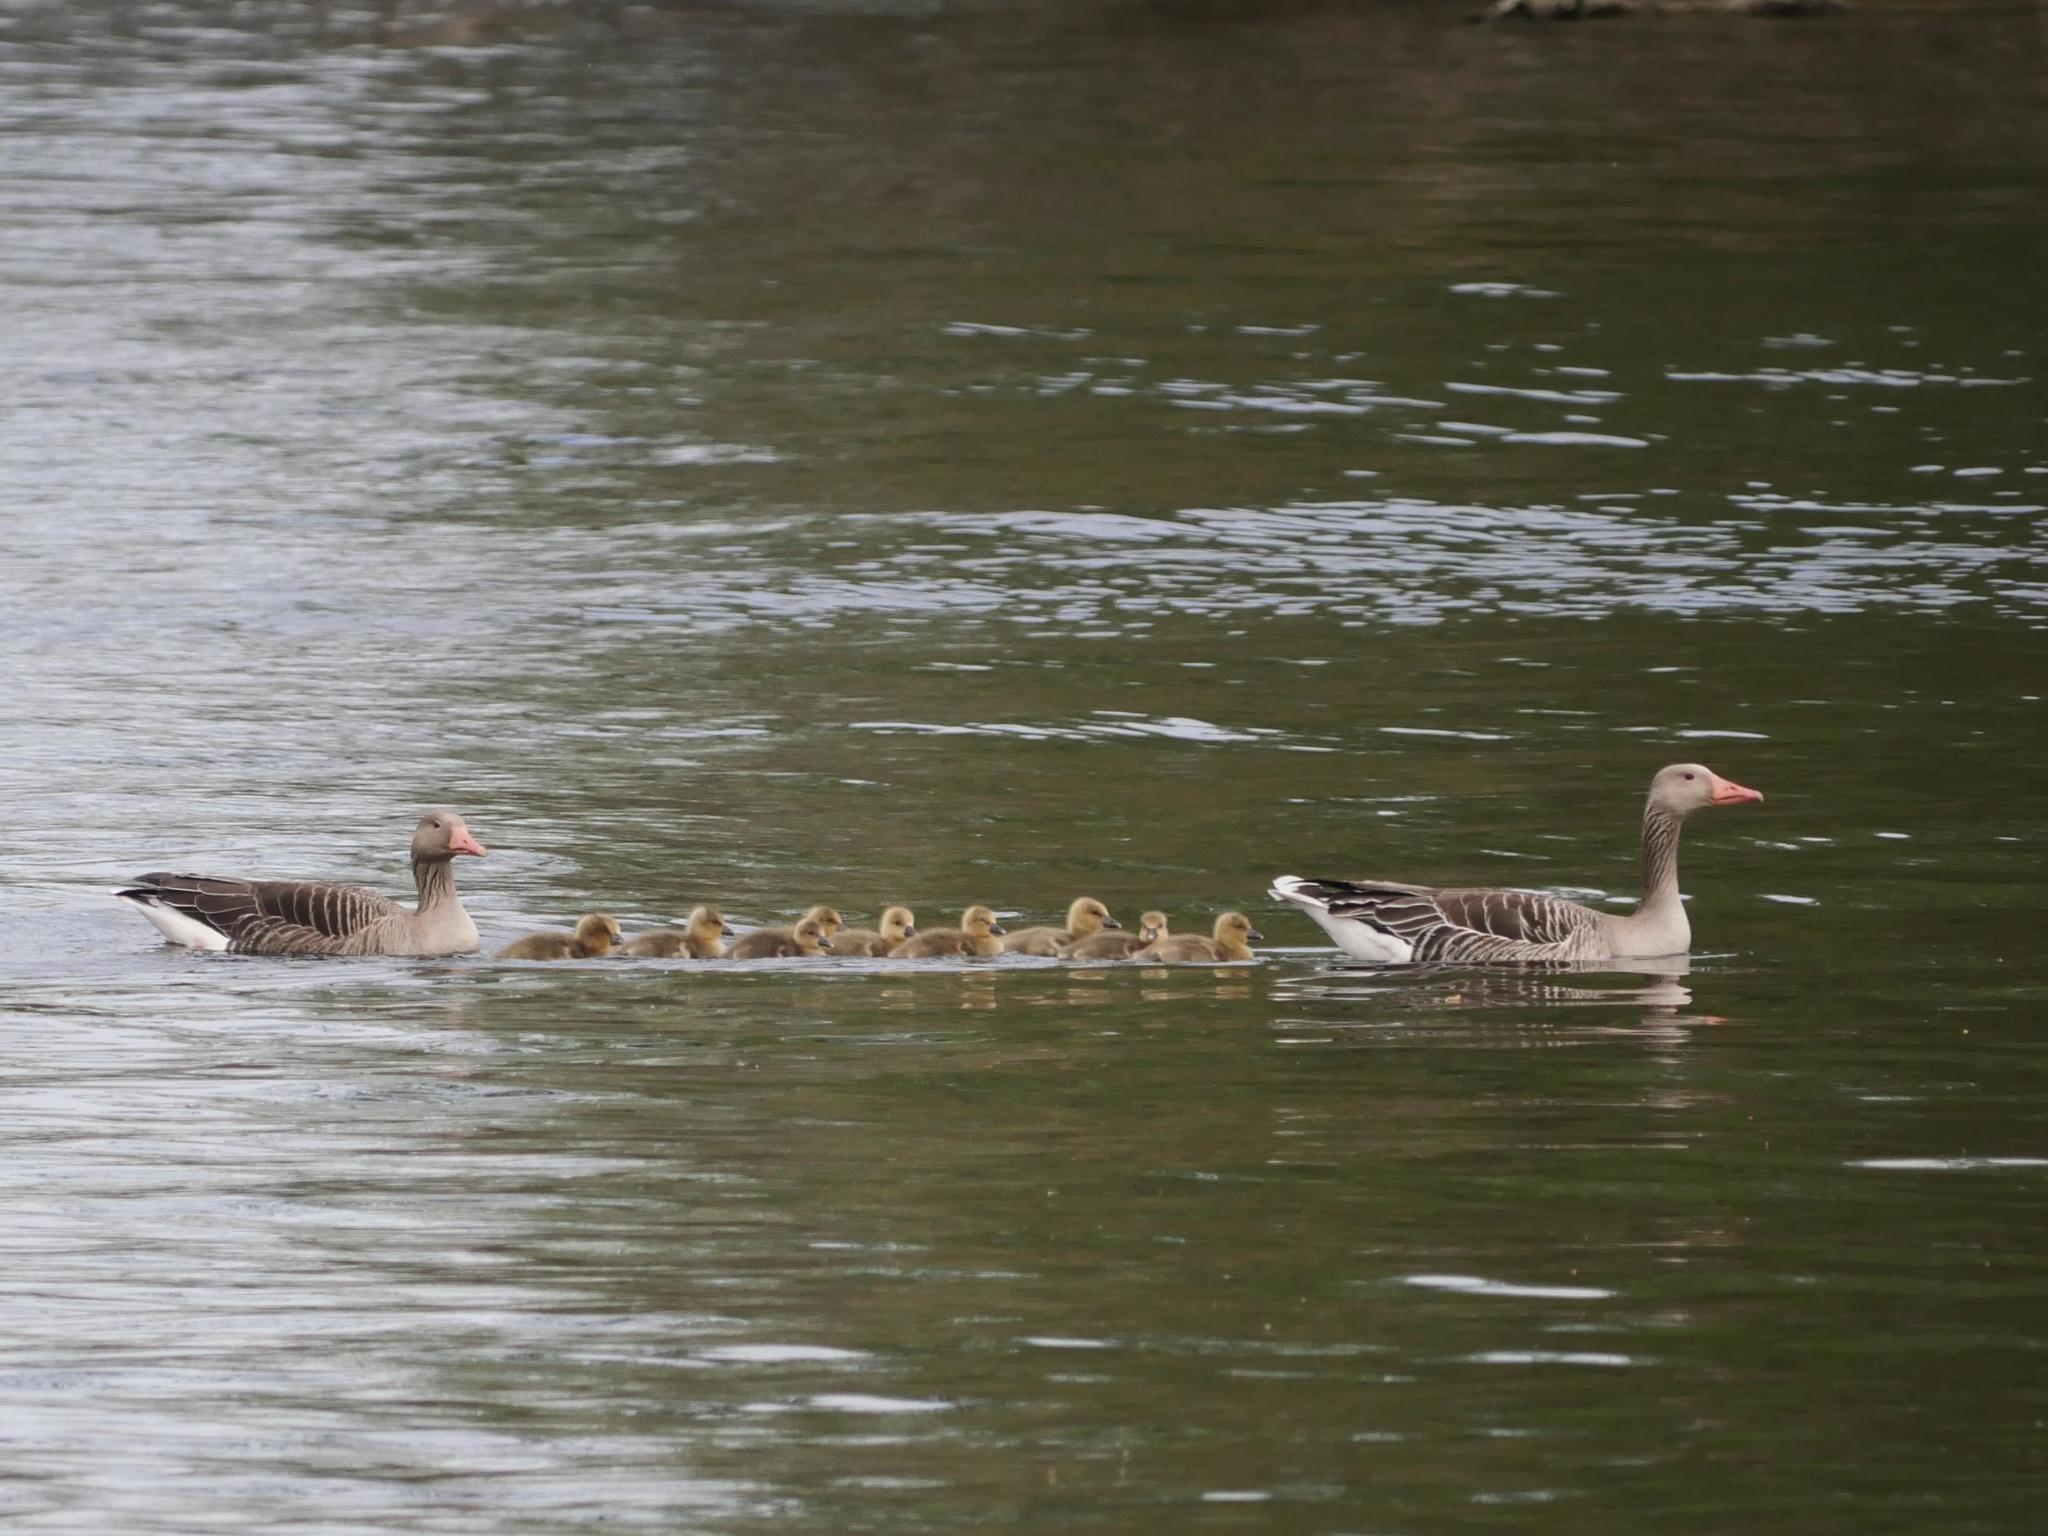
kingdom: Animalia
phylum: Chordata
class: Aves
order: Anseriformes
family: Anatidae
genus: Anser
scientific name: Anser anser
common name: Greylag goose
